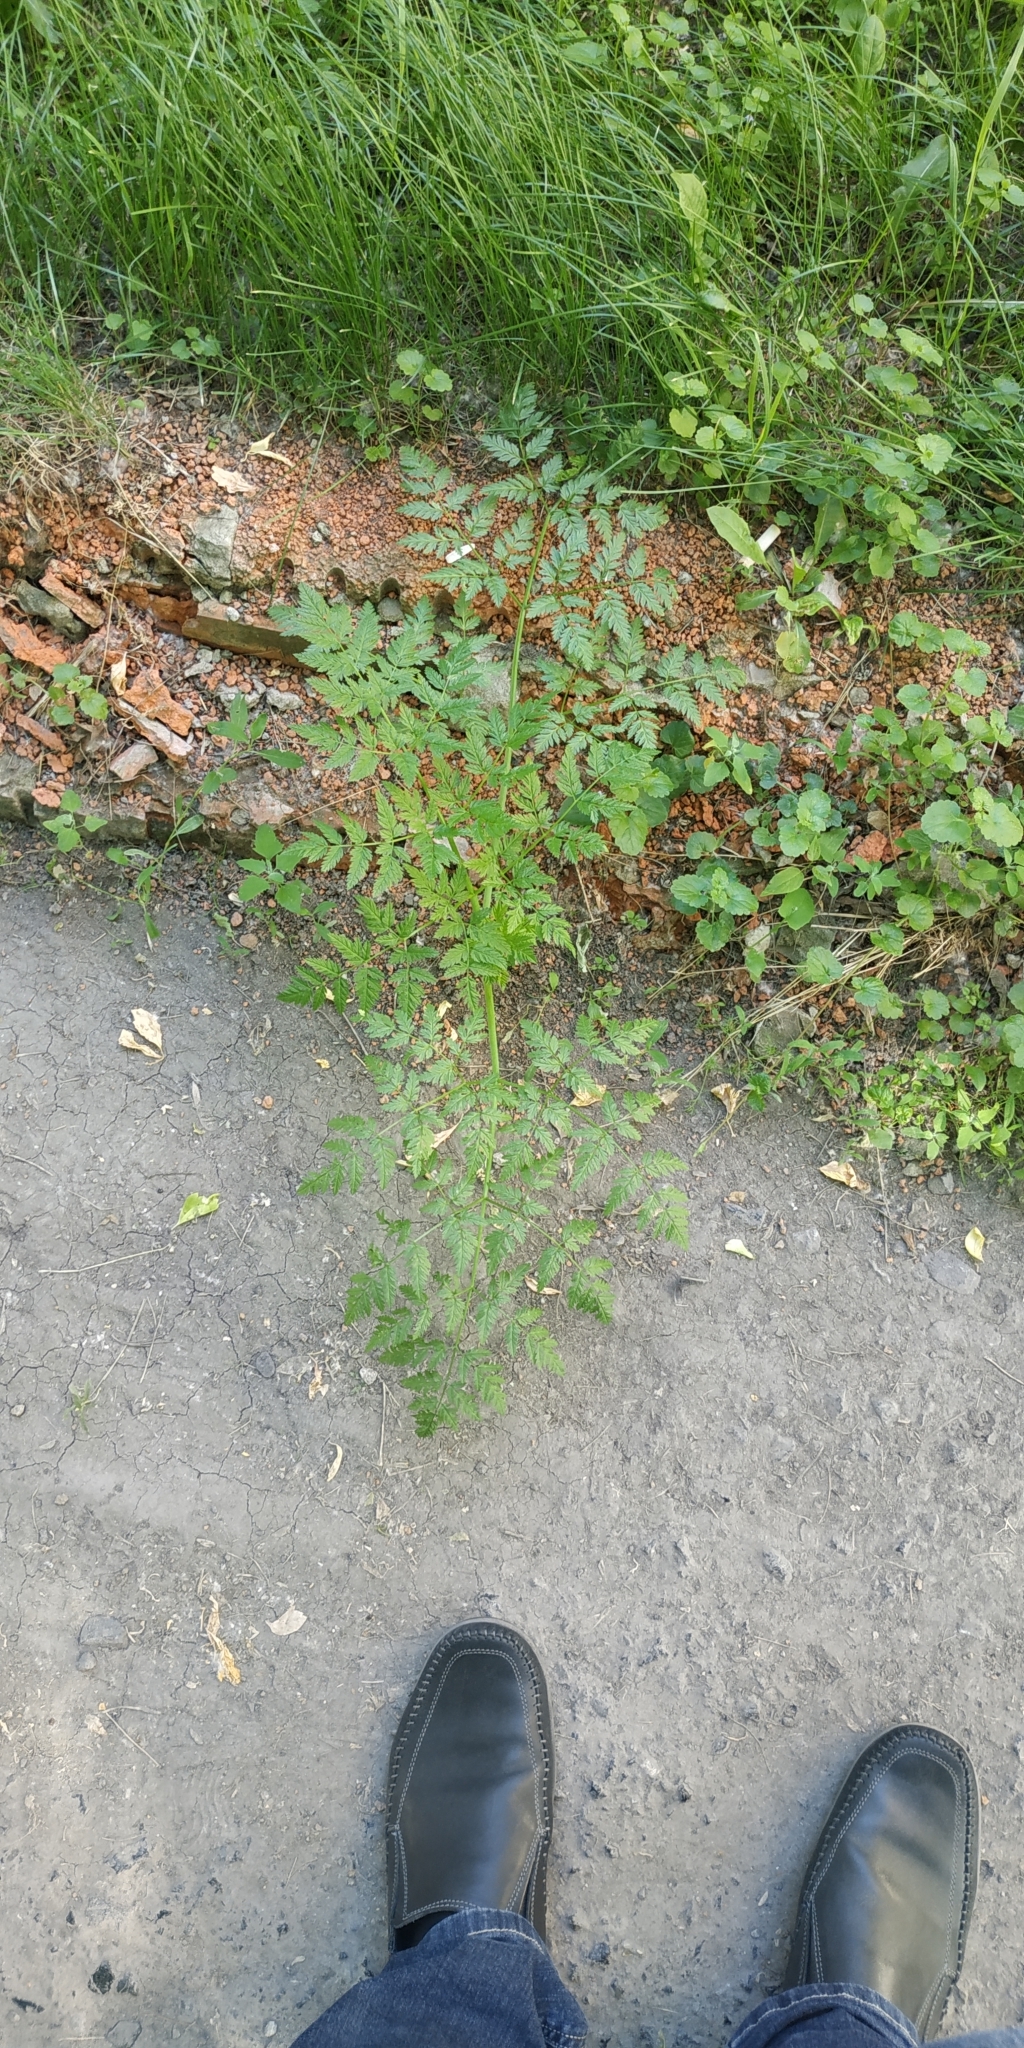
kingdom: Plantae
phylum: Tracheophyta
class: Magnoliopsida
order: Apiales
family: Apiaceae
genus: Anthriscus
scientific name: Anthriscus sylvestris
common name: Cow parsley
